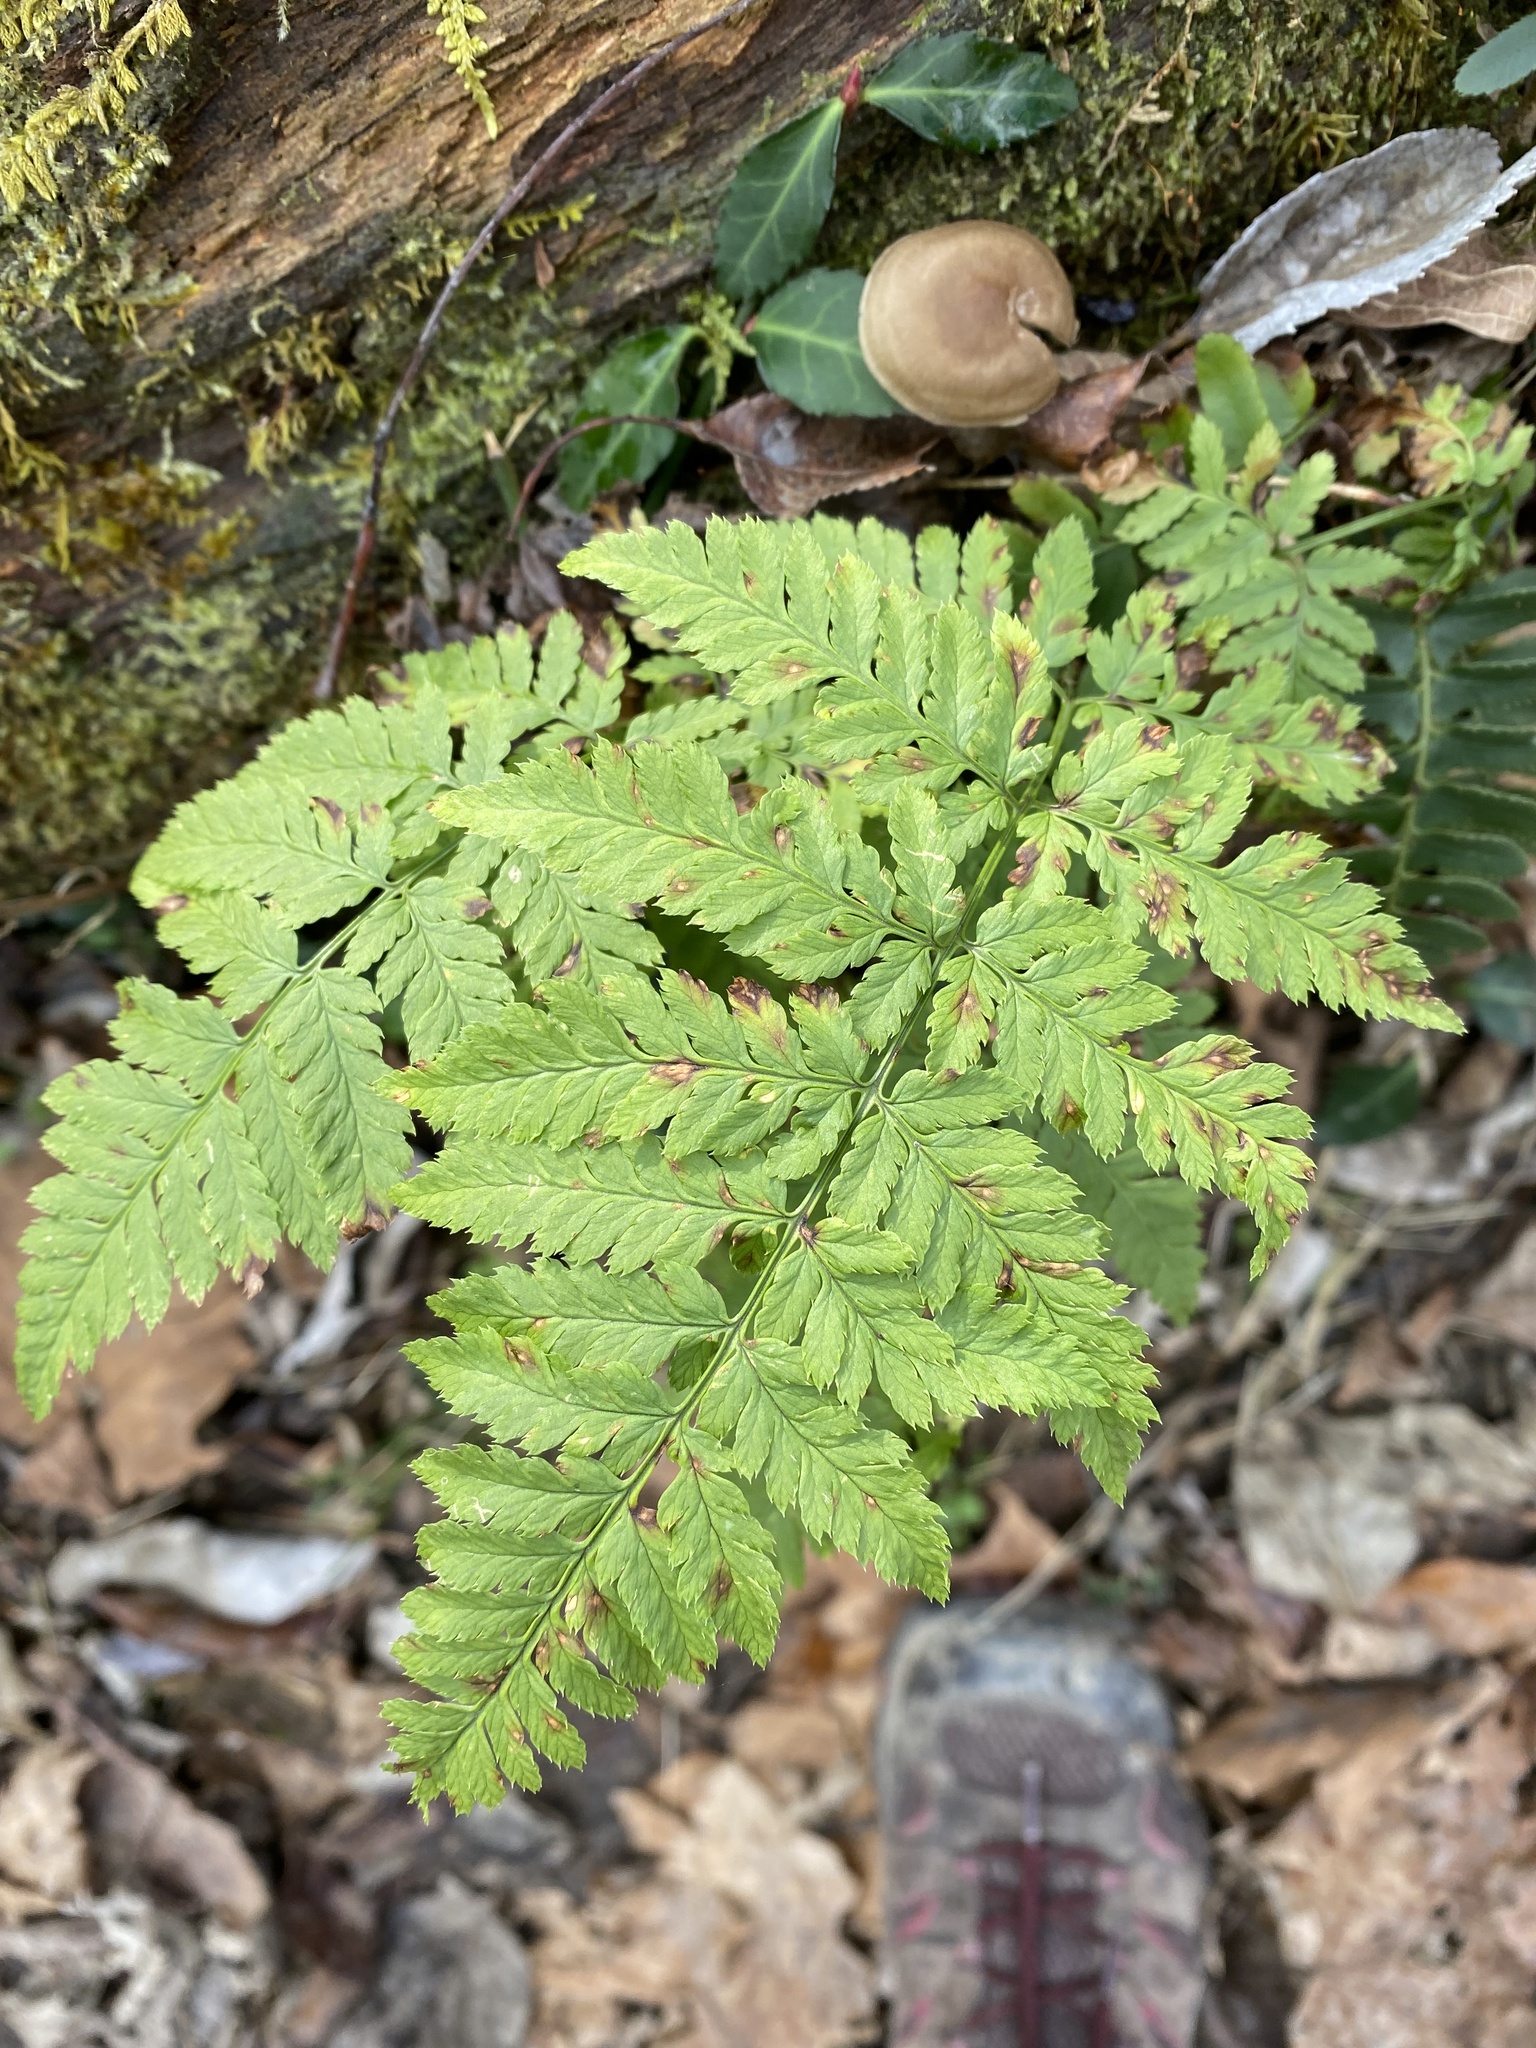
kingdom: Plantae
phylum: Tracheophyta
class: Polypodiopsida
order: Polypodiales
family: Dryopteridaceae
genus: Dryopteris
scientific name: Dryopteris carthusiana
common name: Narrow buckler-fern
